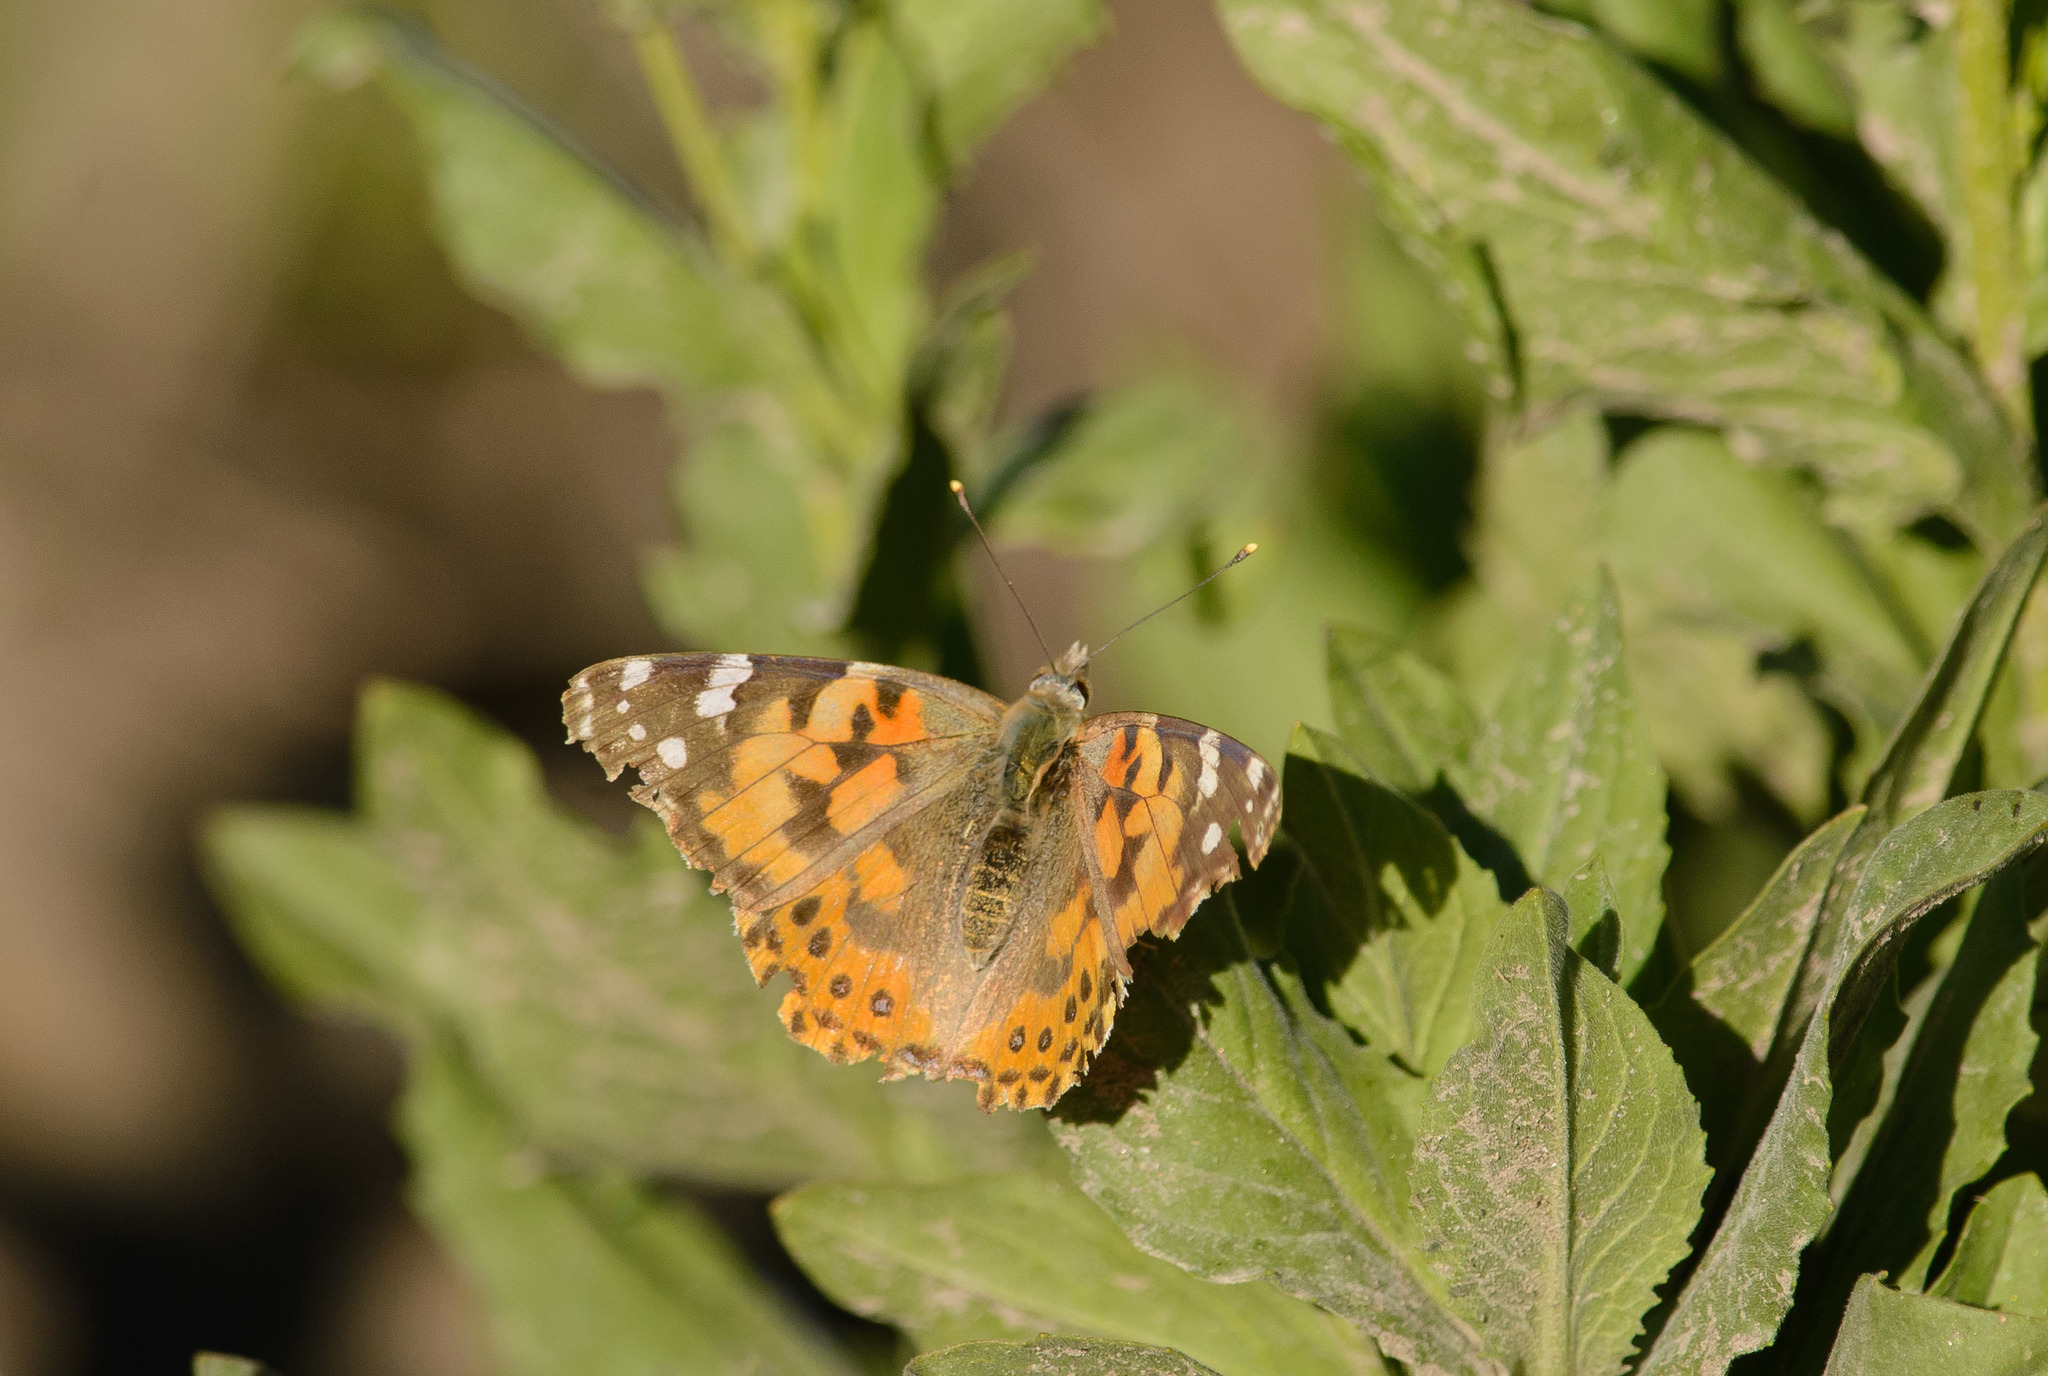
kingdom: Animalia
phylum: Arthropoda
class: Insecta
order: Lepidoptera
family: Nymphalidae
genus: Vanessa
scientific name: Vanessa cardui
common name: Painted lady
